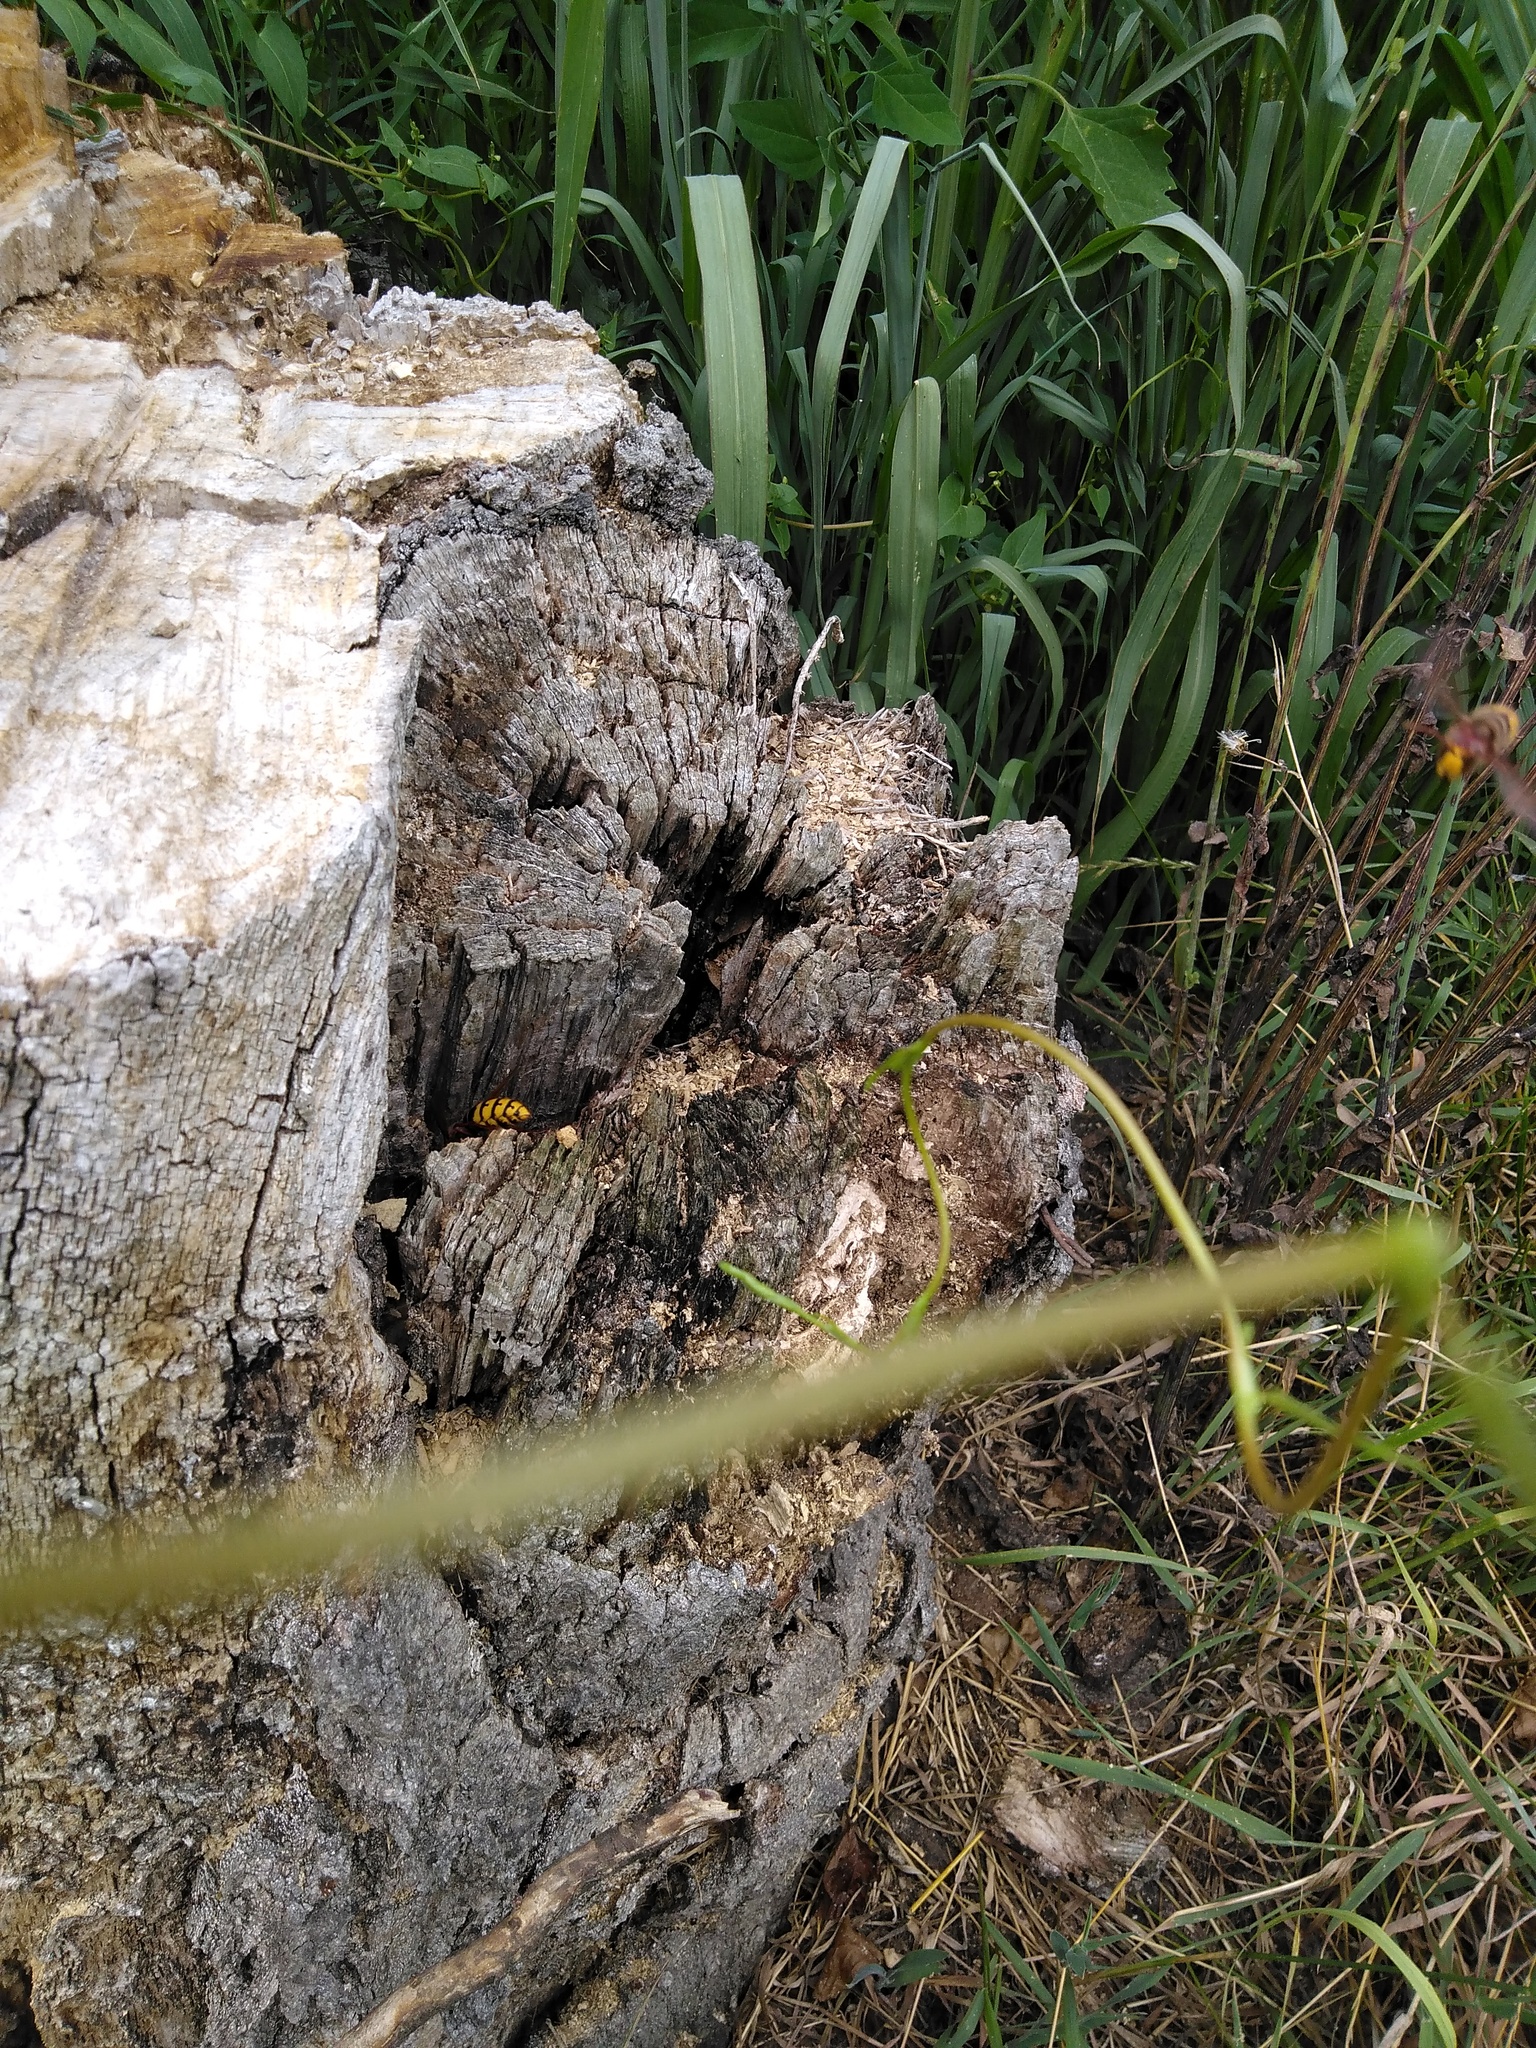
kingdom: Animalia
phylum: Arthropoda
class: Insecta
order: Hymenoptera
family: Vespidae
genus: Vespa
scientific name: Vespa crabro
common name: Hornet
